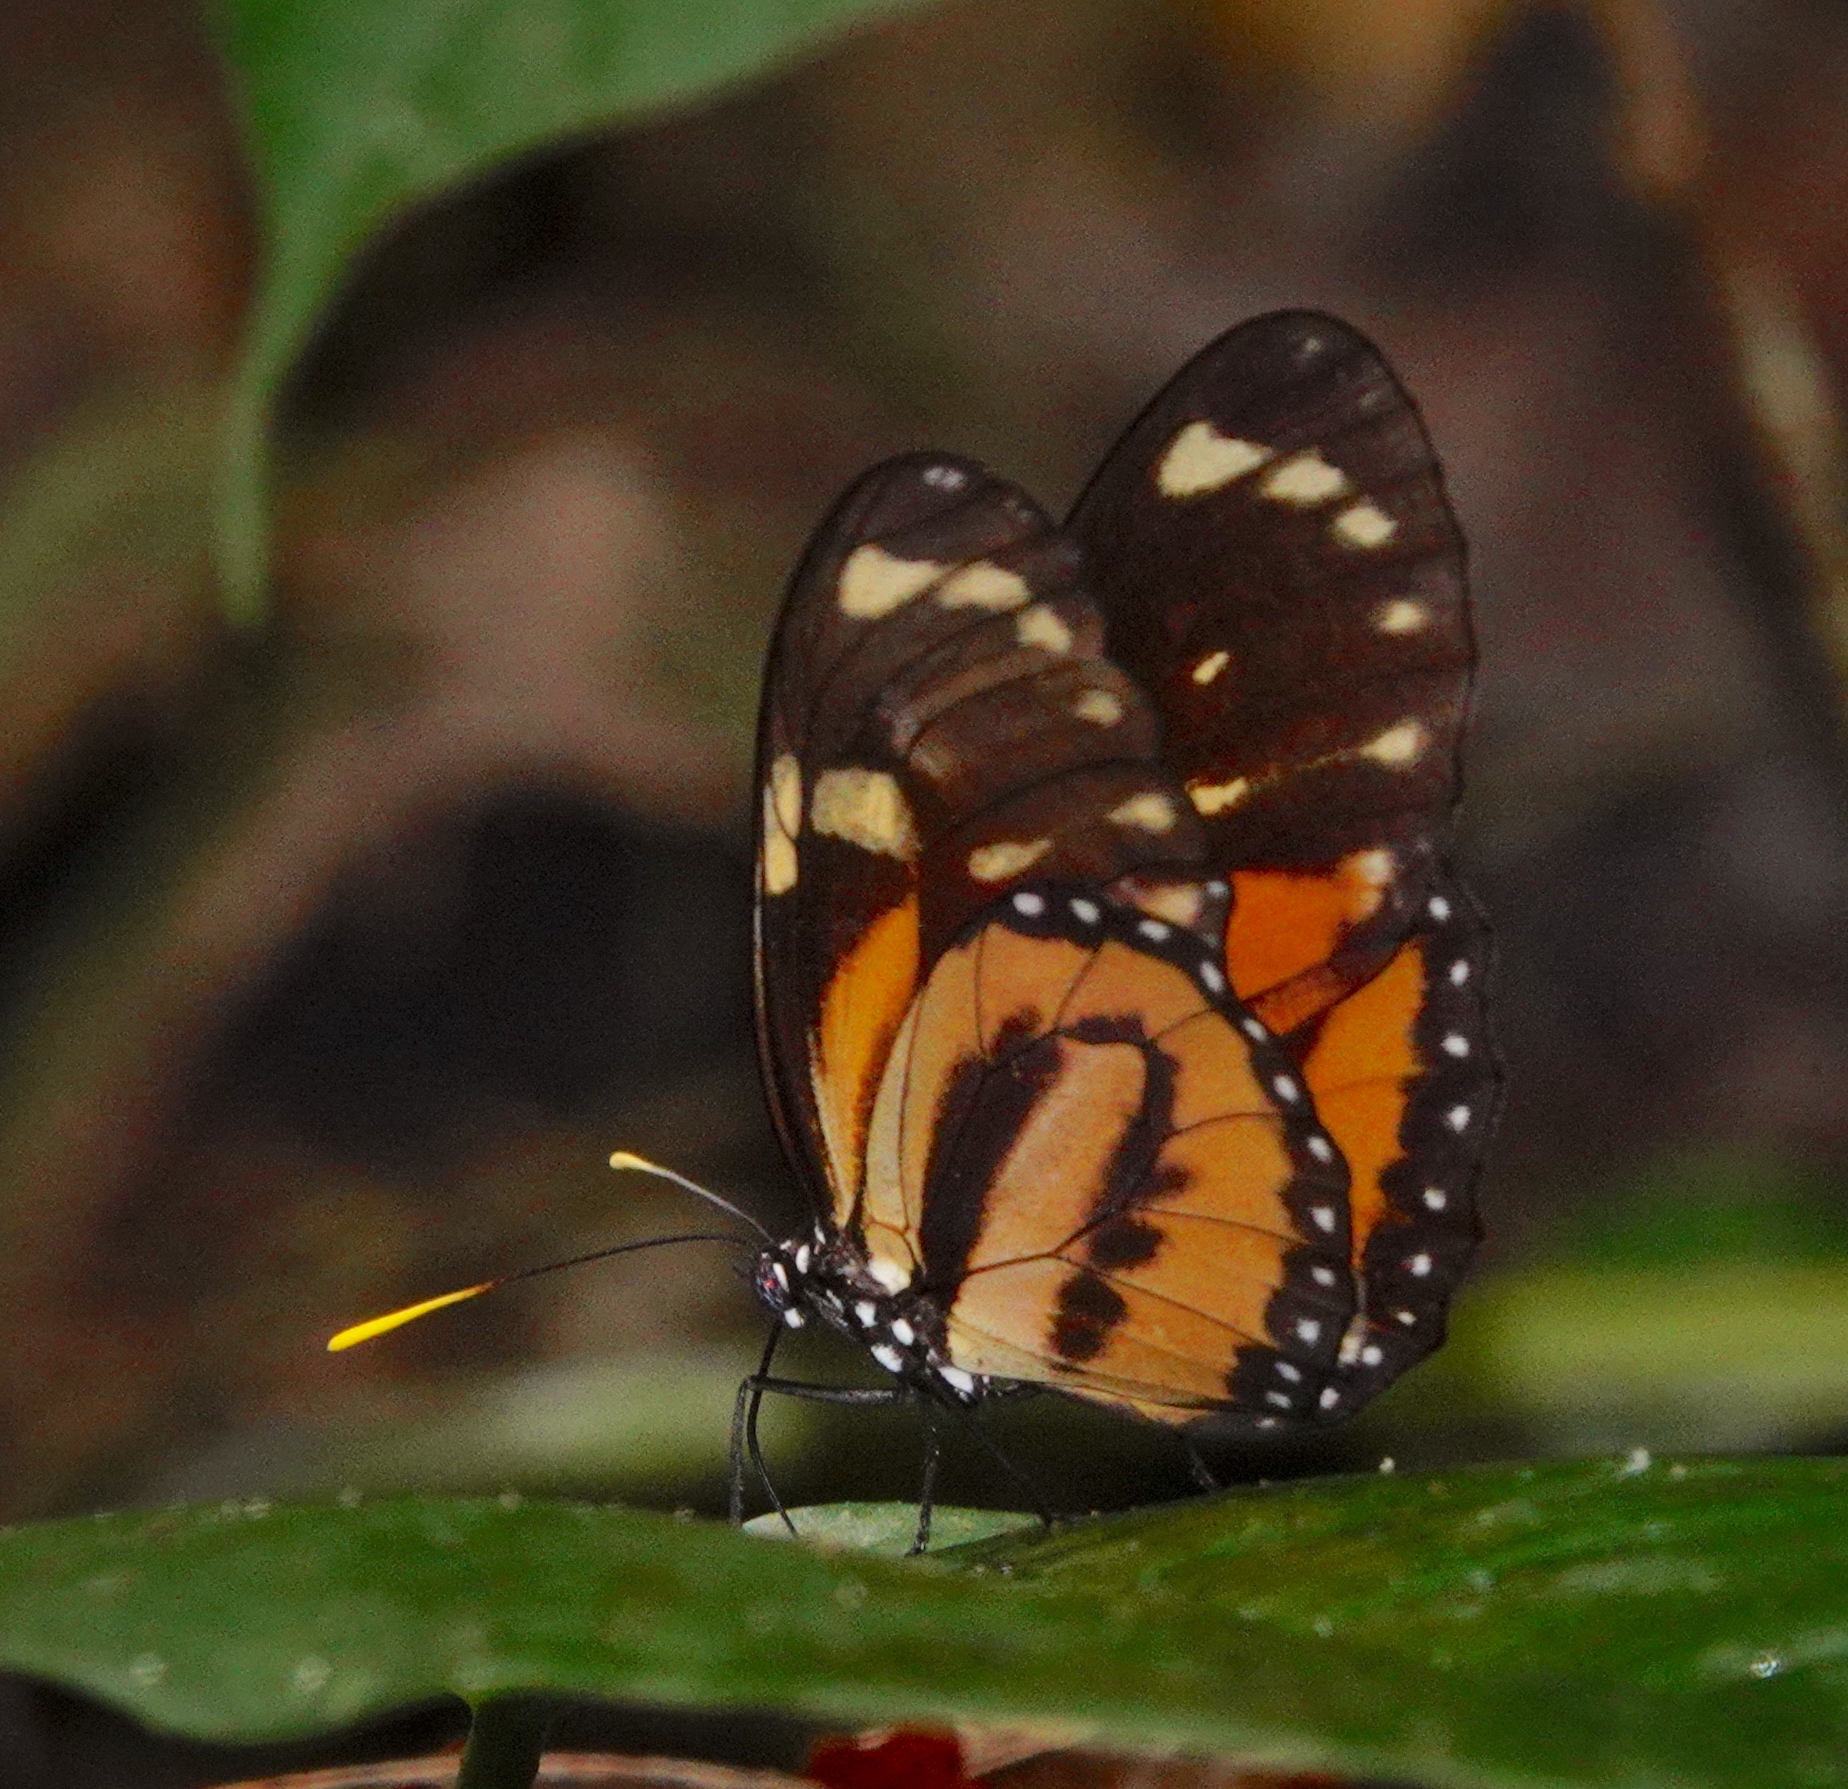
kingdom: Animalia
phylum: Arthropoda
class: Insecta
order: Lepidoptera
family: Nymphalidae
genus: Lycorea
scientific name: Lycorea cleobaea
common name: Tiger mimic-queen
